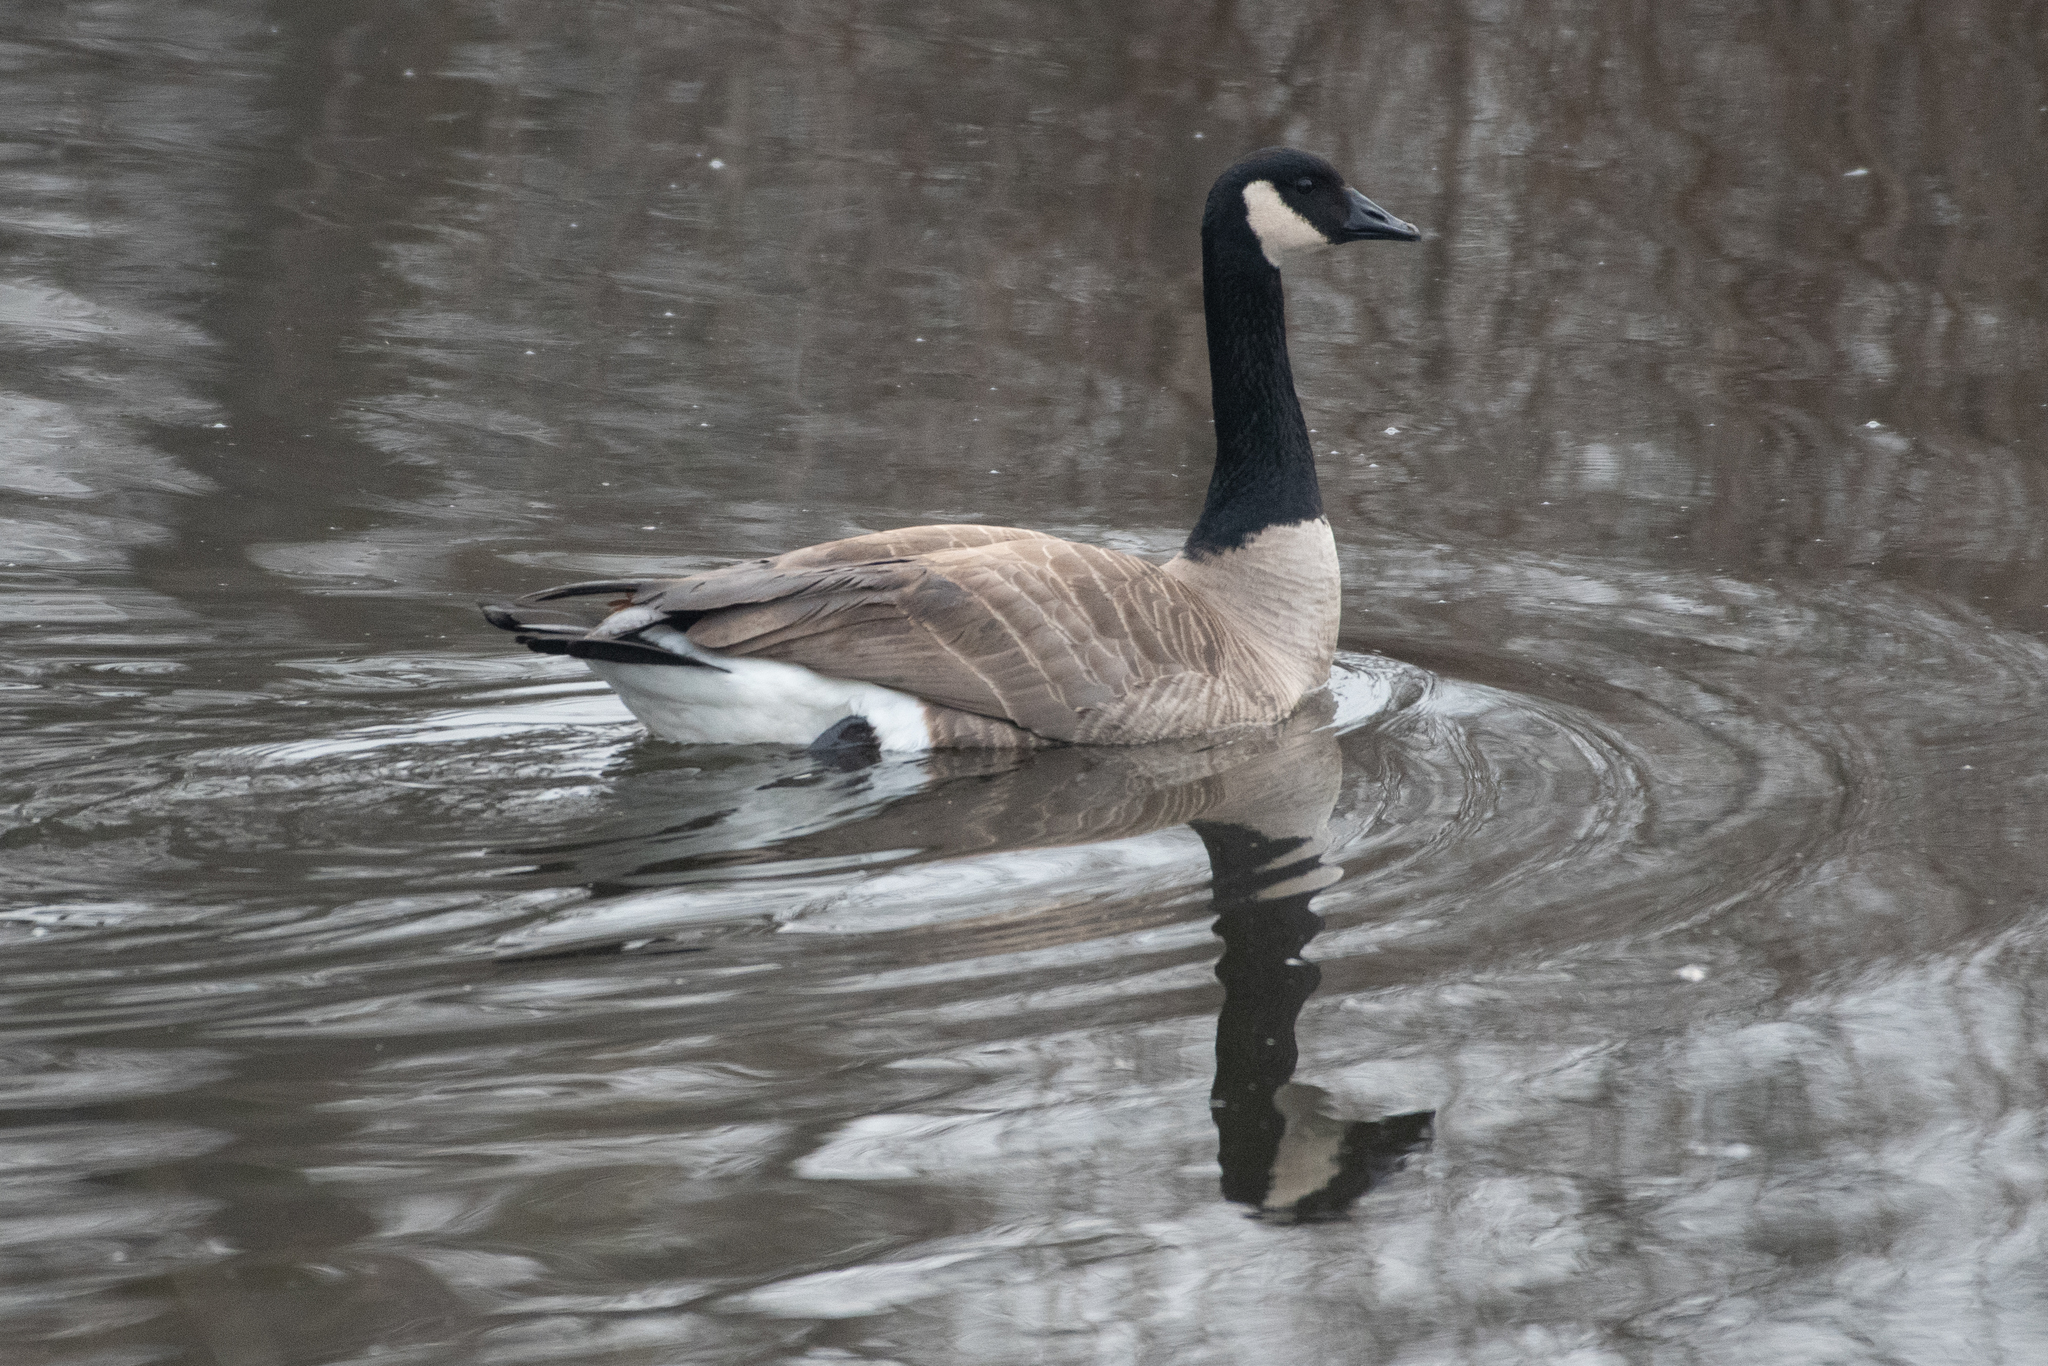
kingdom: Animalia
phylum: Chordata
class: Aves
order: Anseriformes
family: Anatidae
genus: Branta
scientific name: Branta canadensis
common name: Canada goose
